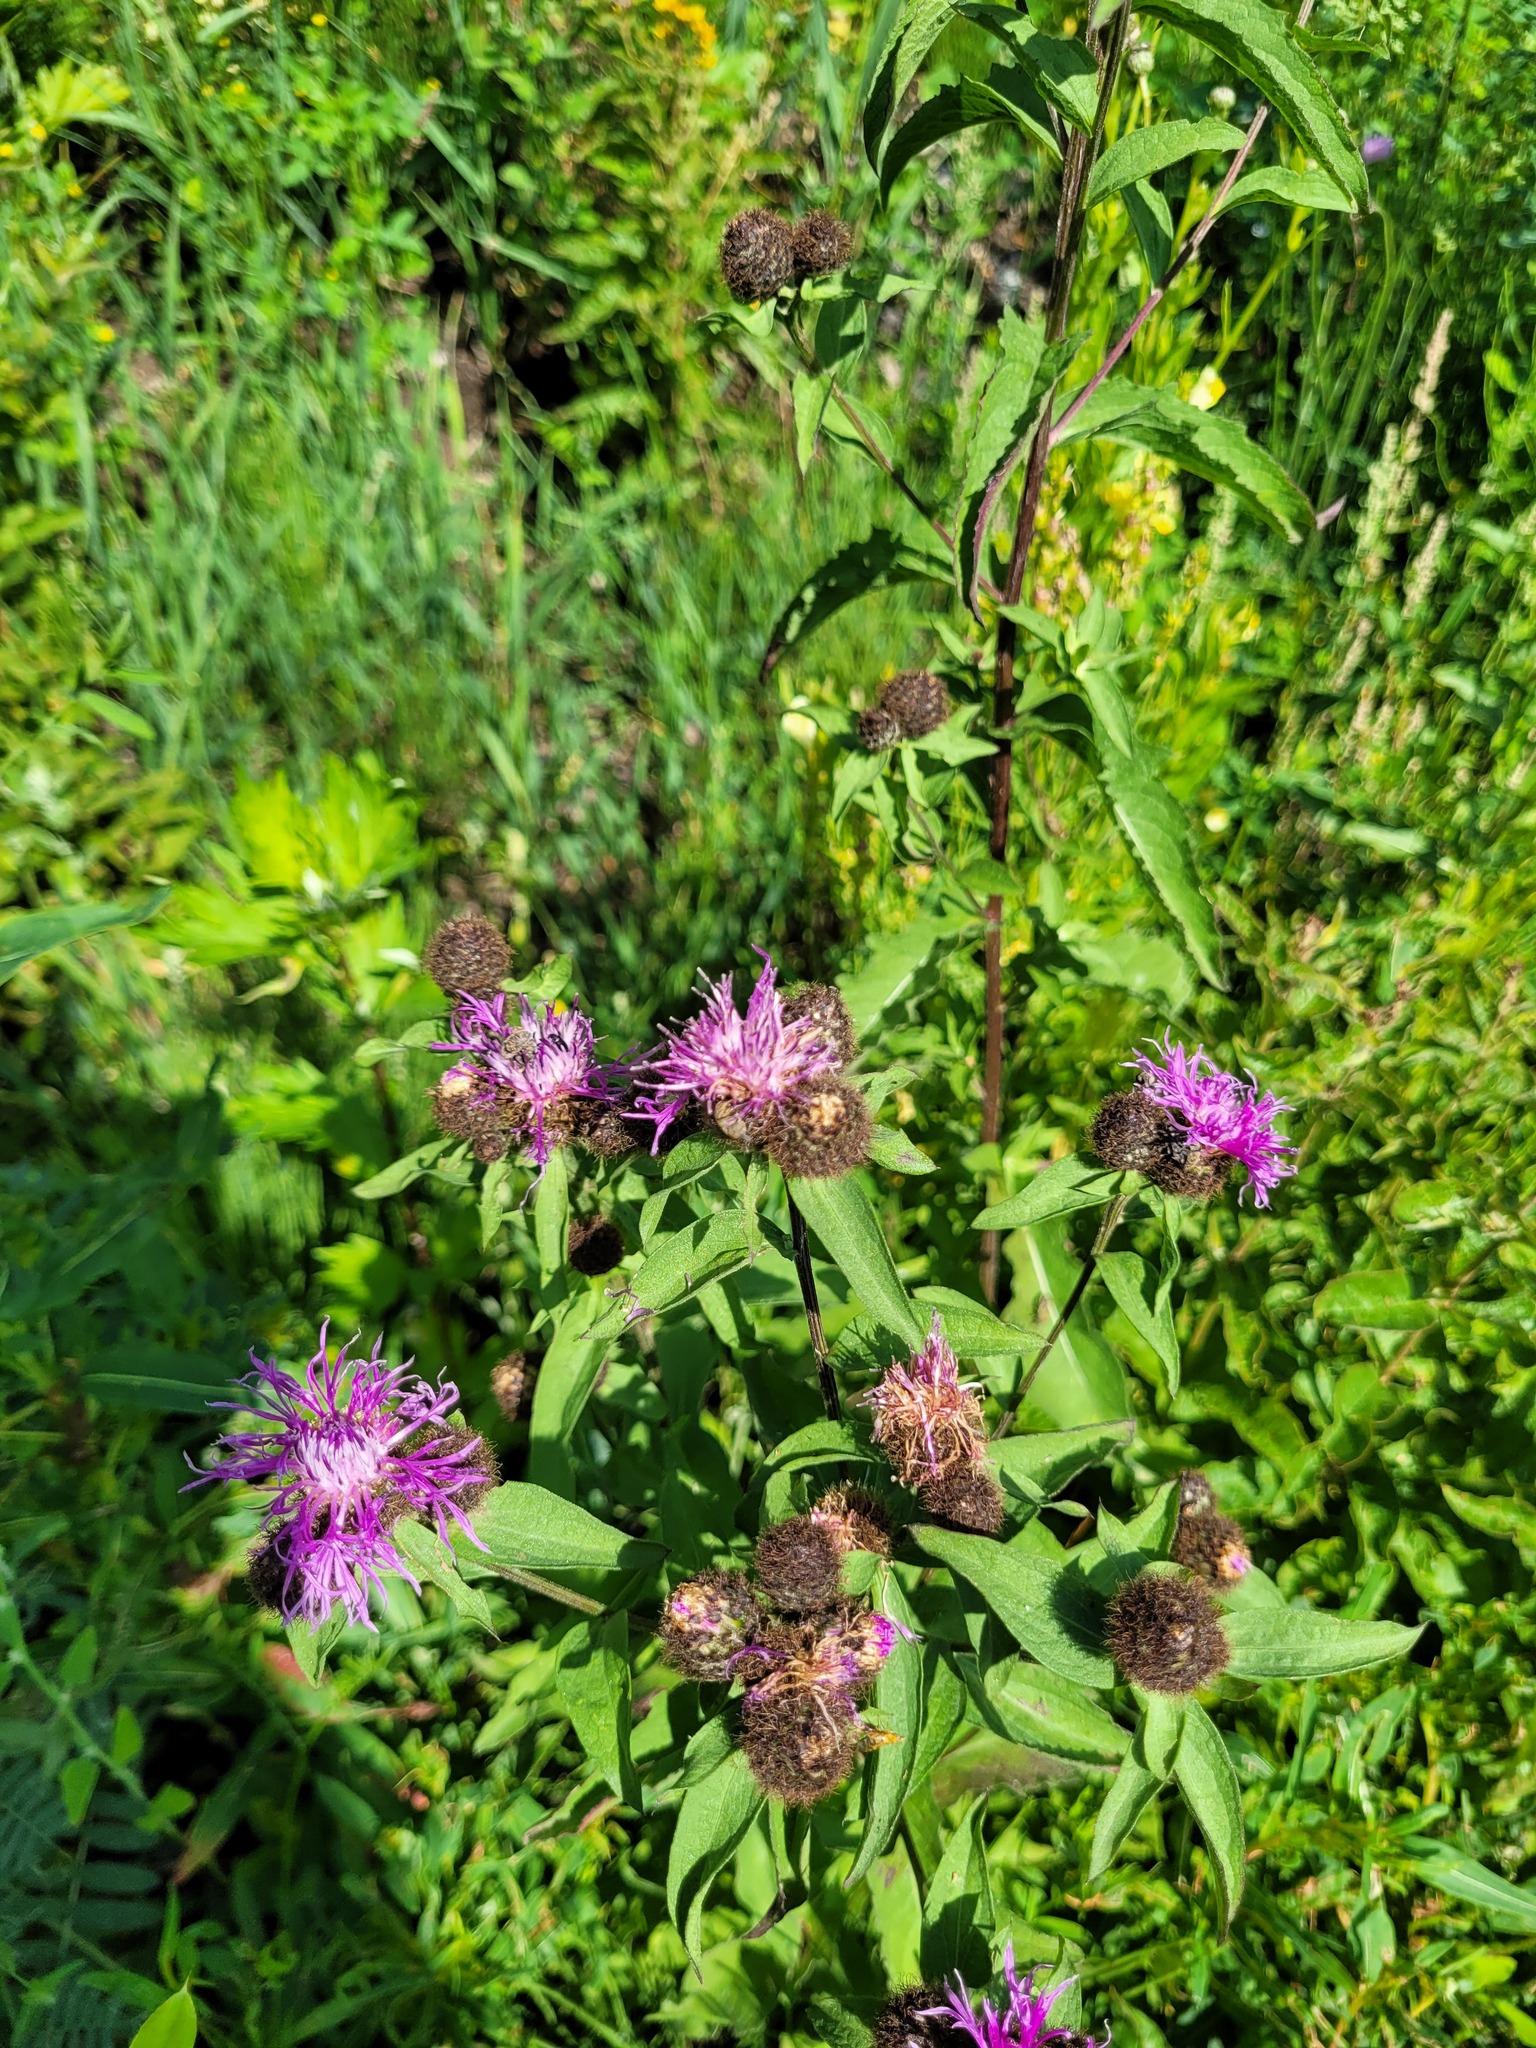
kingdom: Plantae
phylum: Tracheophyta
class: Magnoliopsida
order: Asterales
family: Asteraceae
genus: Centaurea
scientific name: Centaurea phrygia
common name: Wig knapweed
